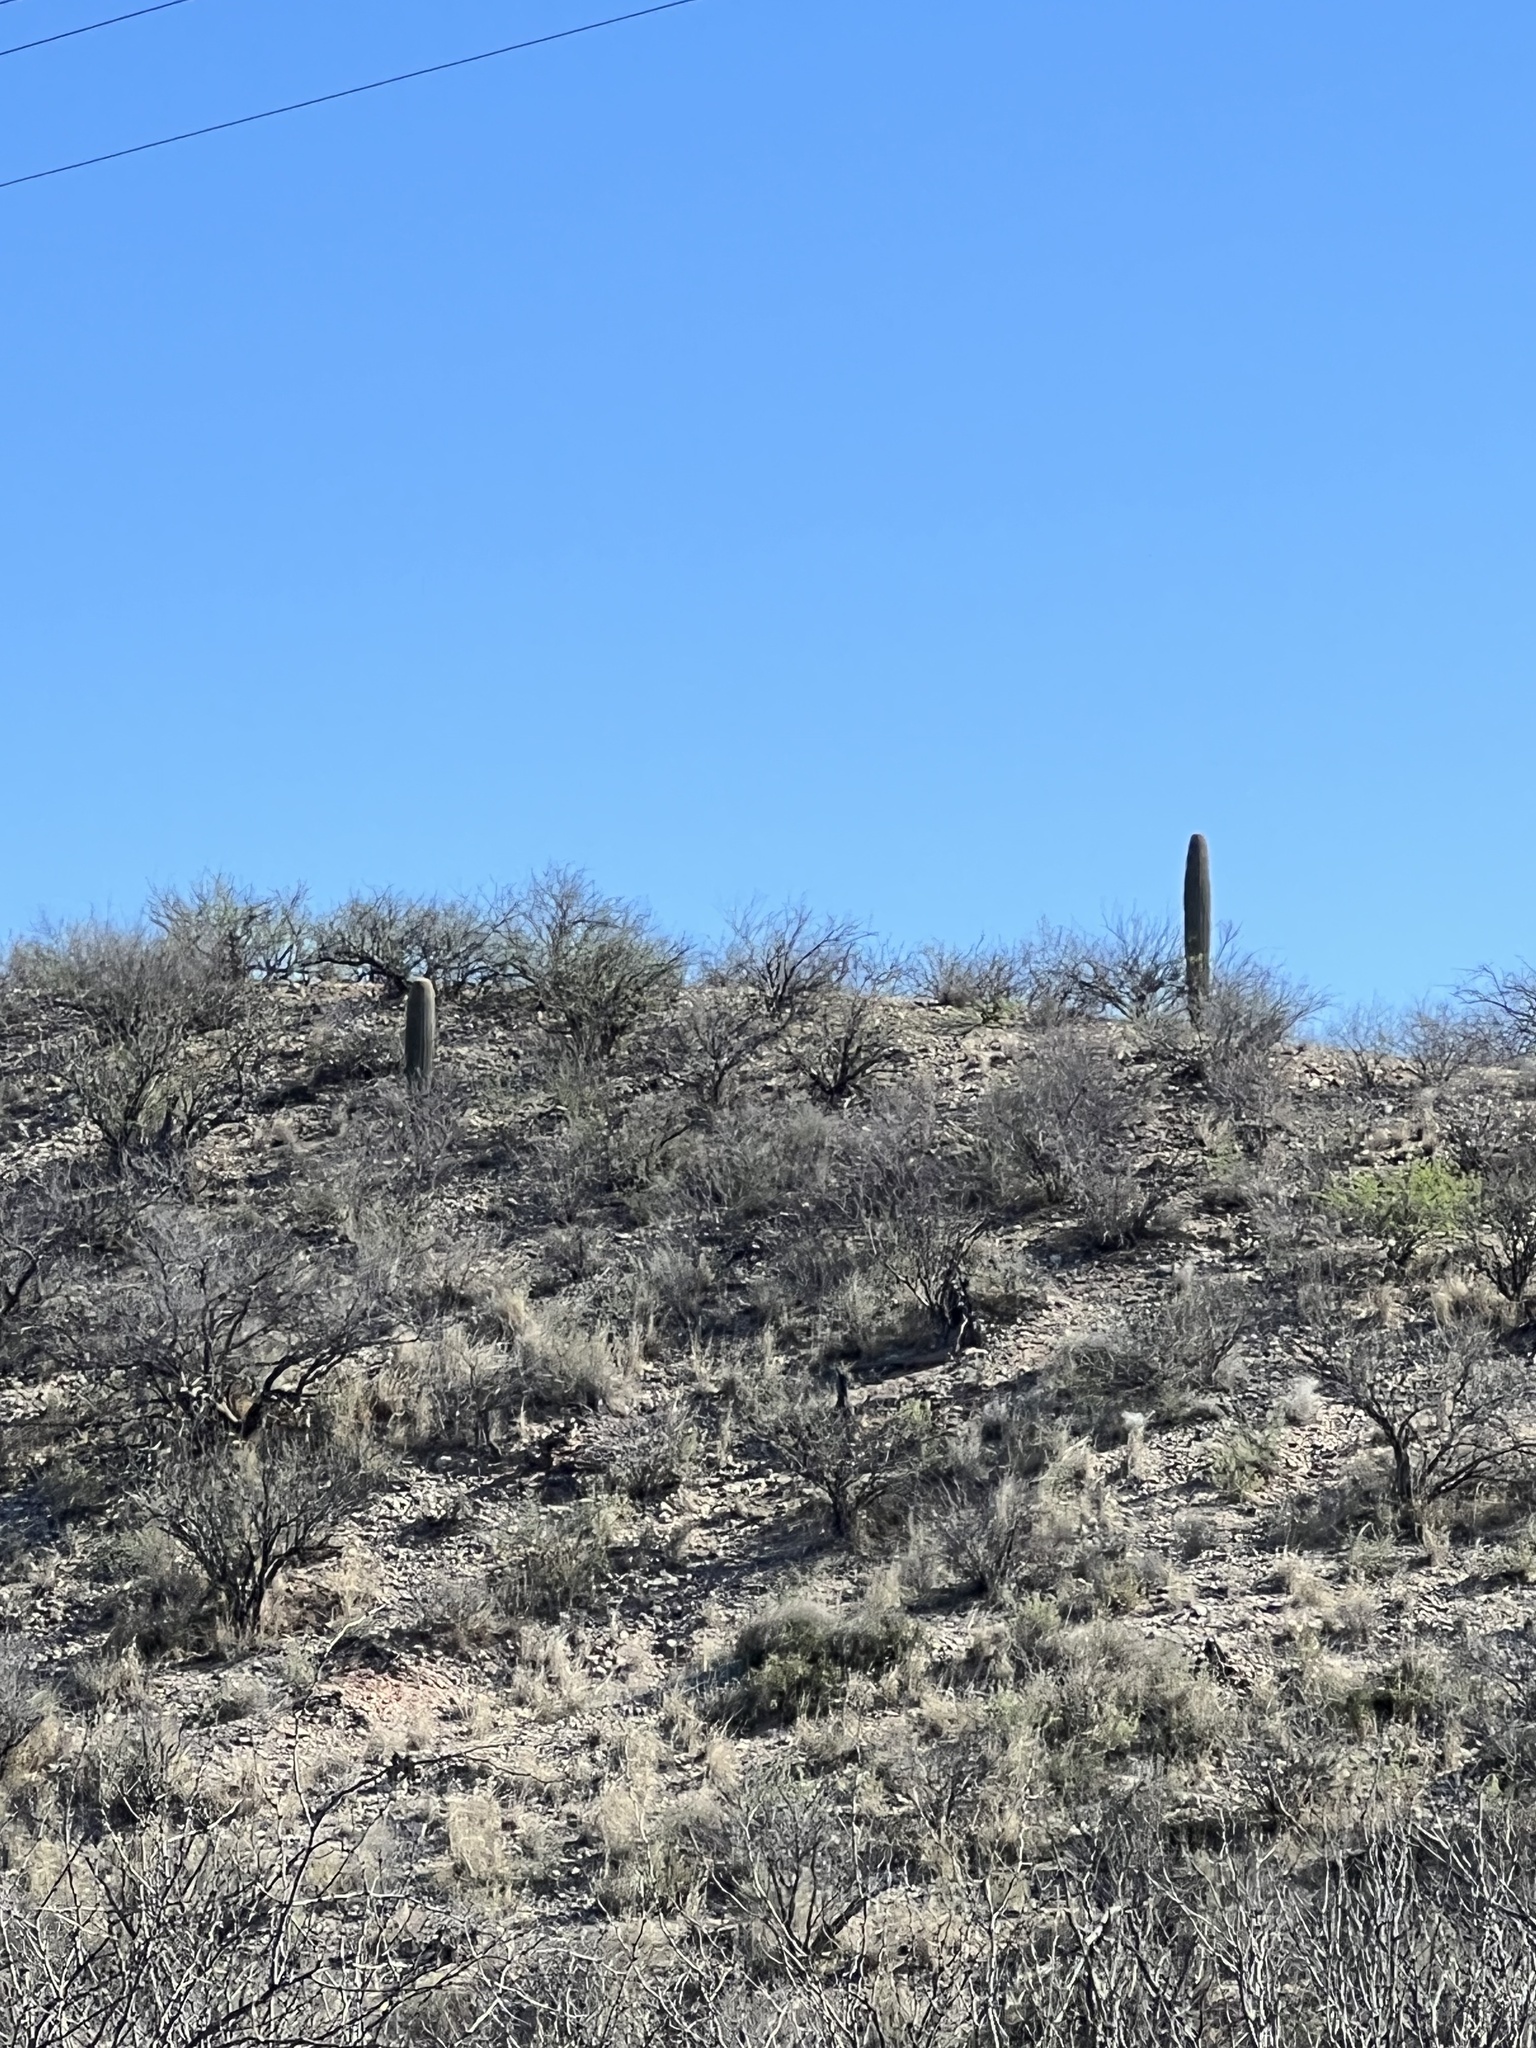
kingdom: Plantae
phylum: Tracheophyta
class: Magnoliopsida
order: Caryophyllales
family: Cactaceae
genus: Carnegiea
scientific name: Carnegiea gigantea
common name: Saguaro
